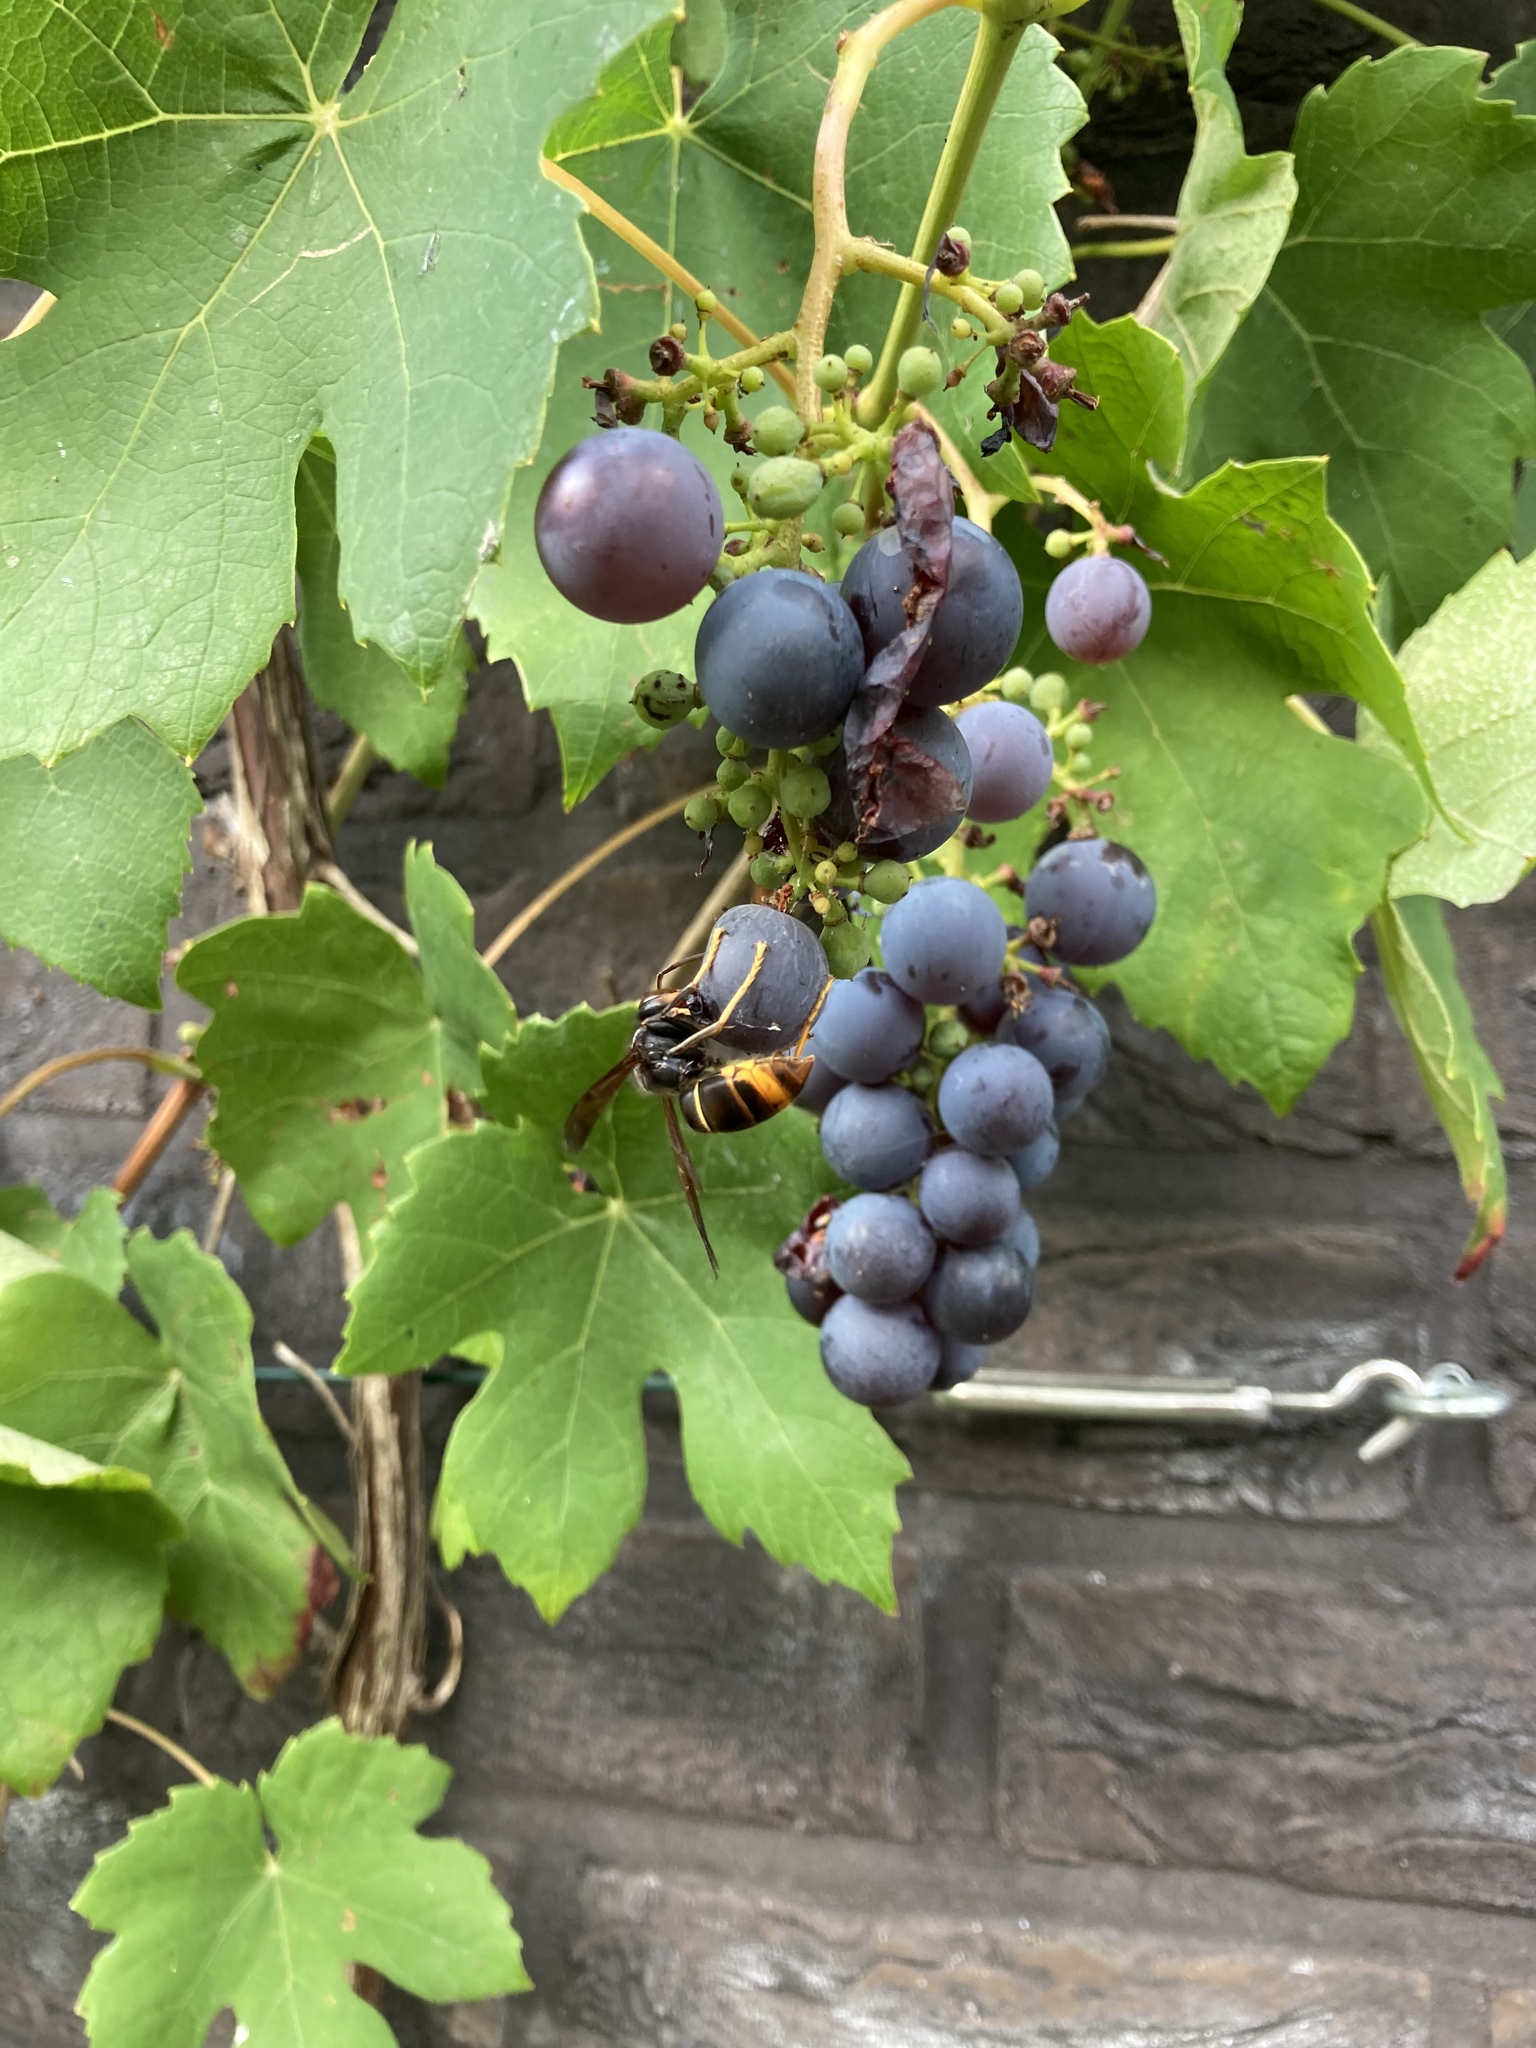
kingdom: Animalia
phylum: Arthropoda
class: Insecta
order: Hymenoptera
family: Vespidae
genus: Vespa
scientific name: Vespa velutina
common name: Asian hornet
